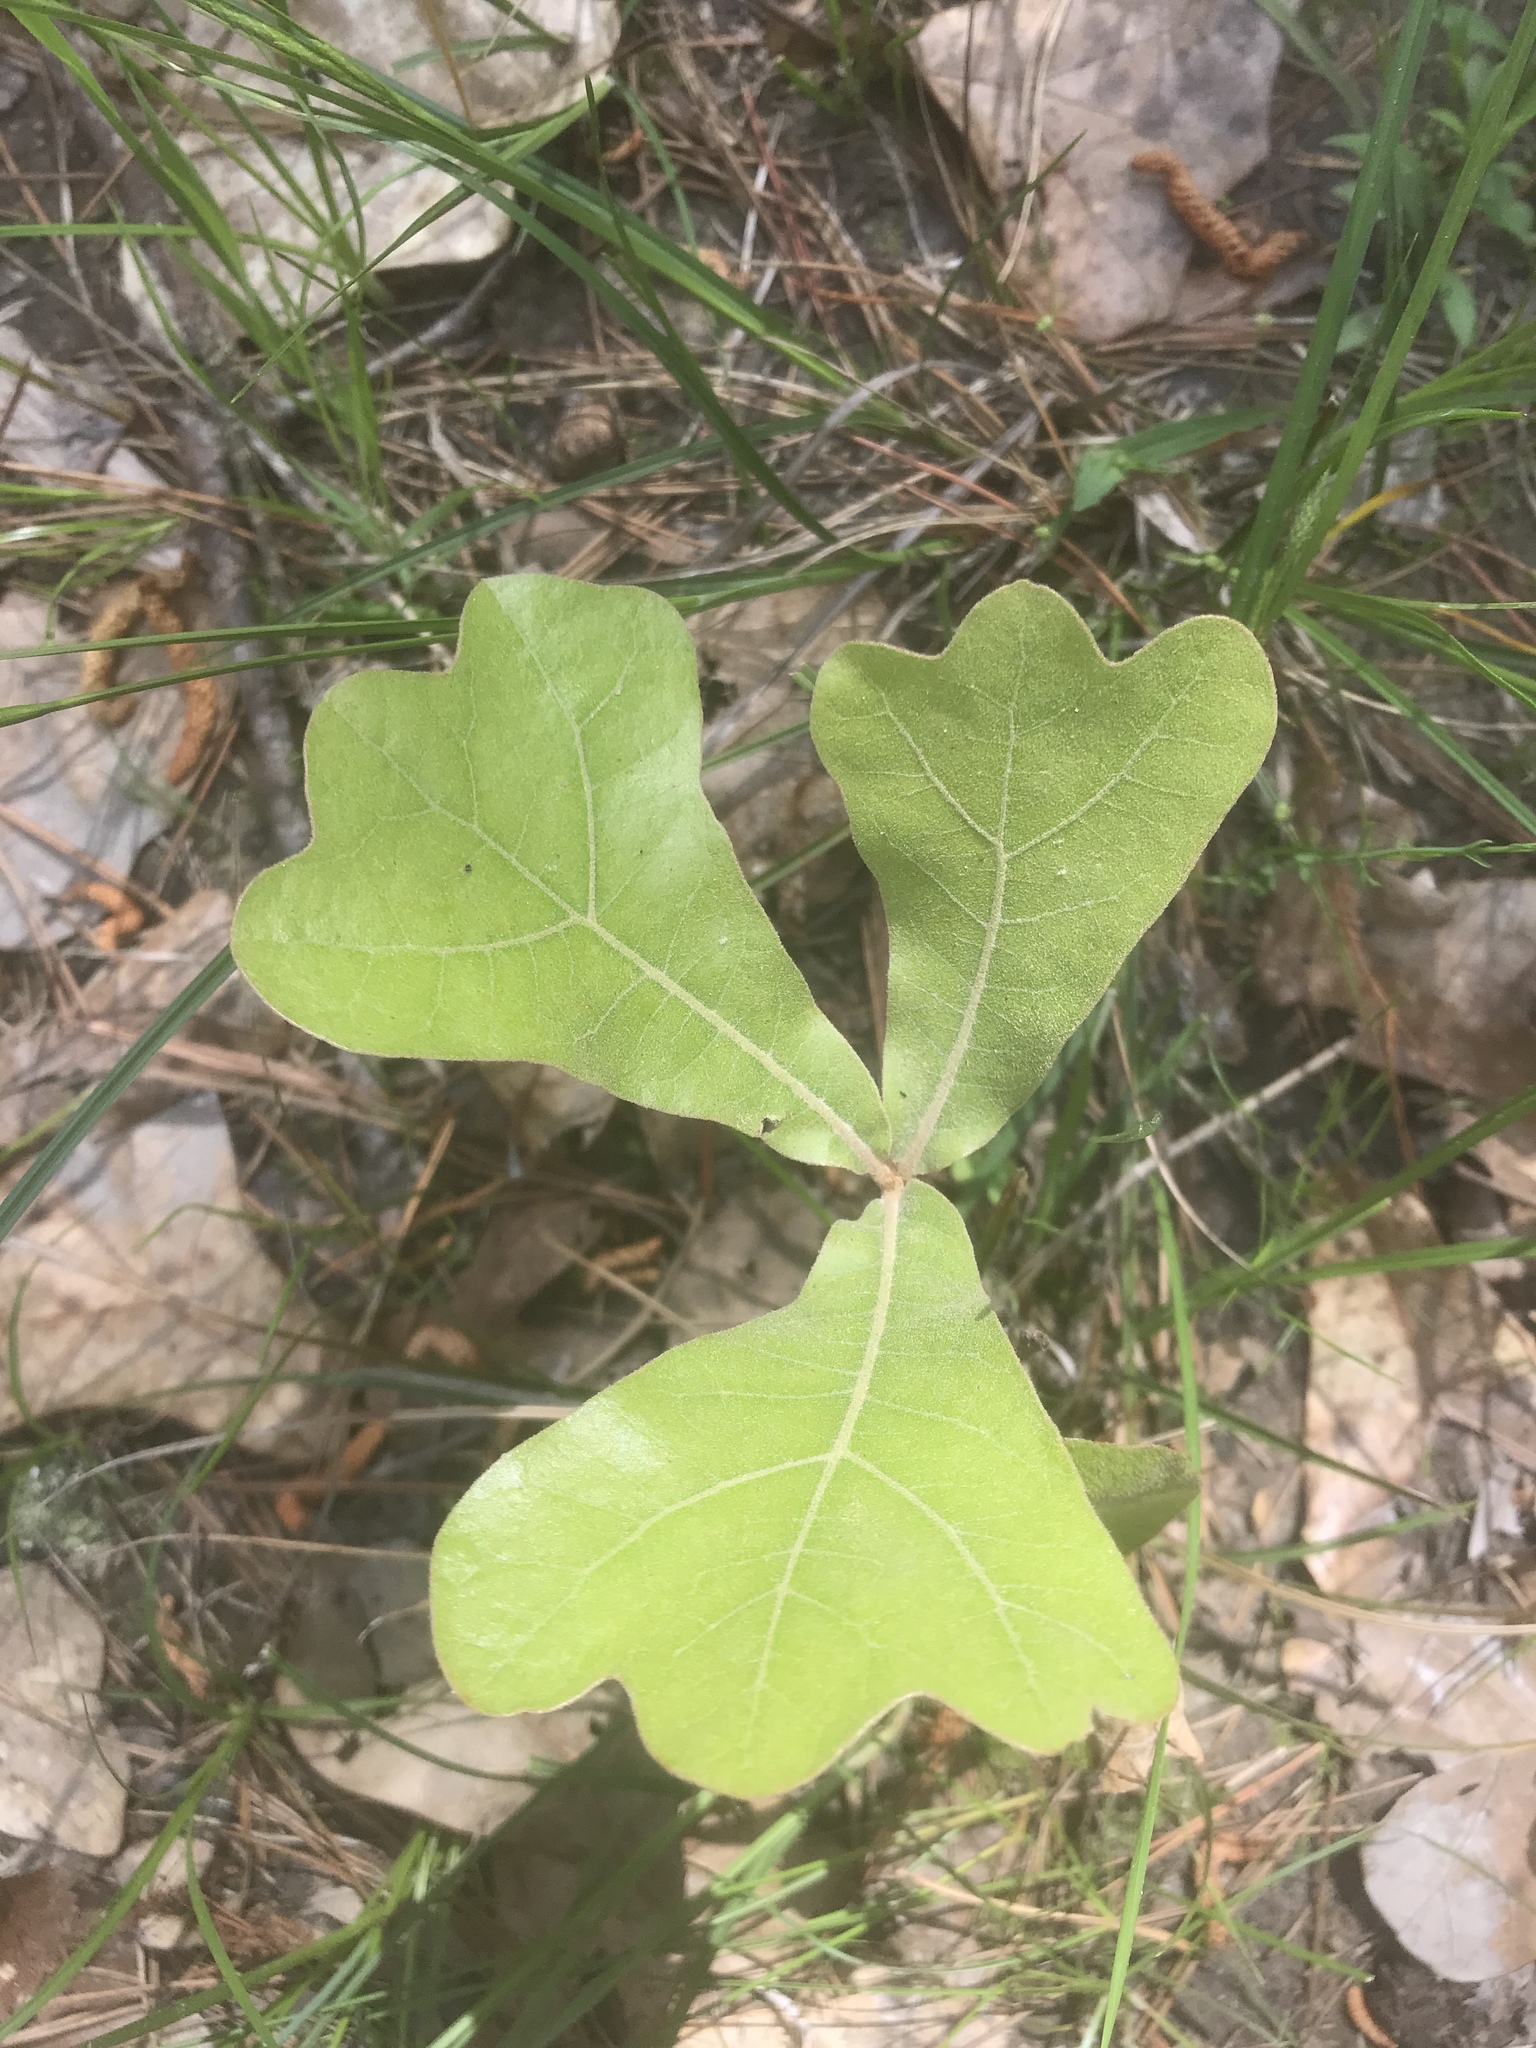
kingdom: Plantae
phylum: Tracheophyta
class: Magnoliopsida
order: Fagales
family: Fagaceae
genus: Quercus
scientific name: Quercus marilandica
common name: Blackjack oak
